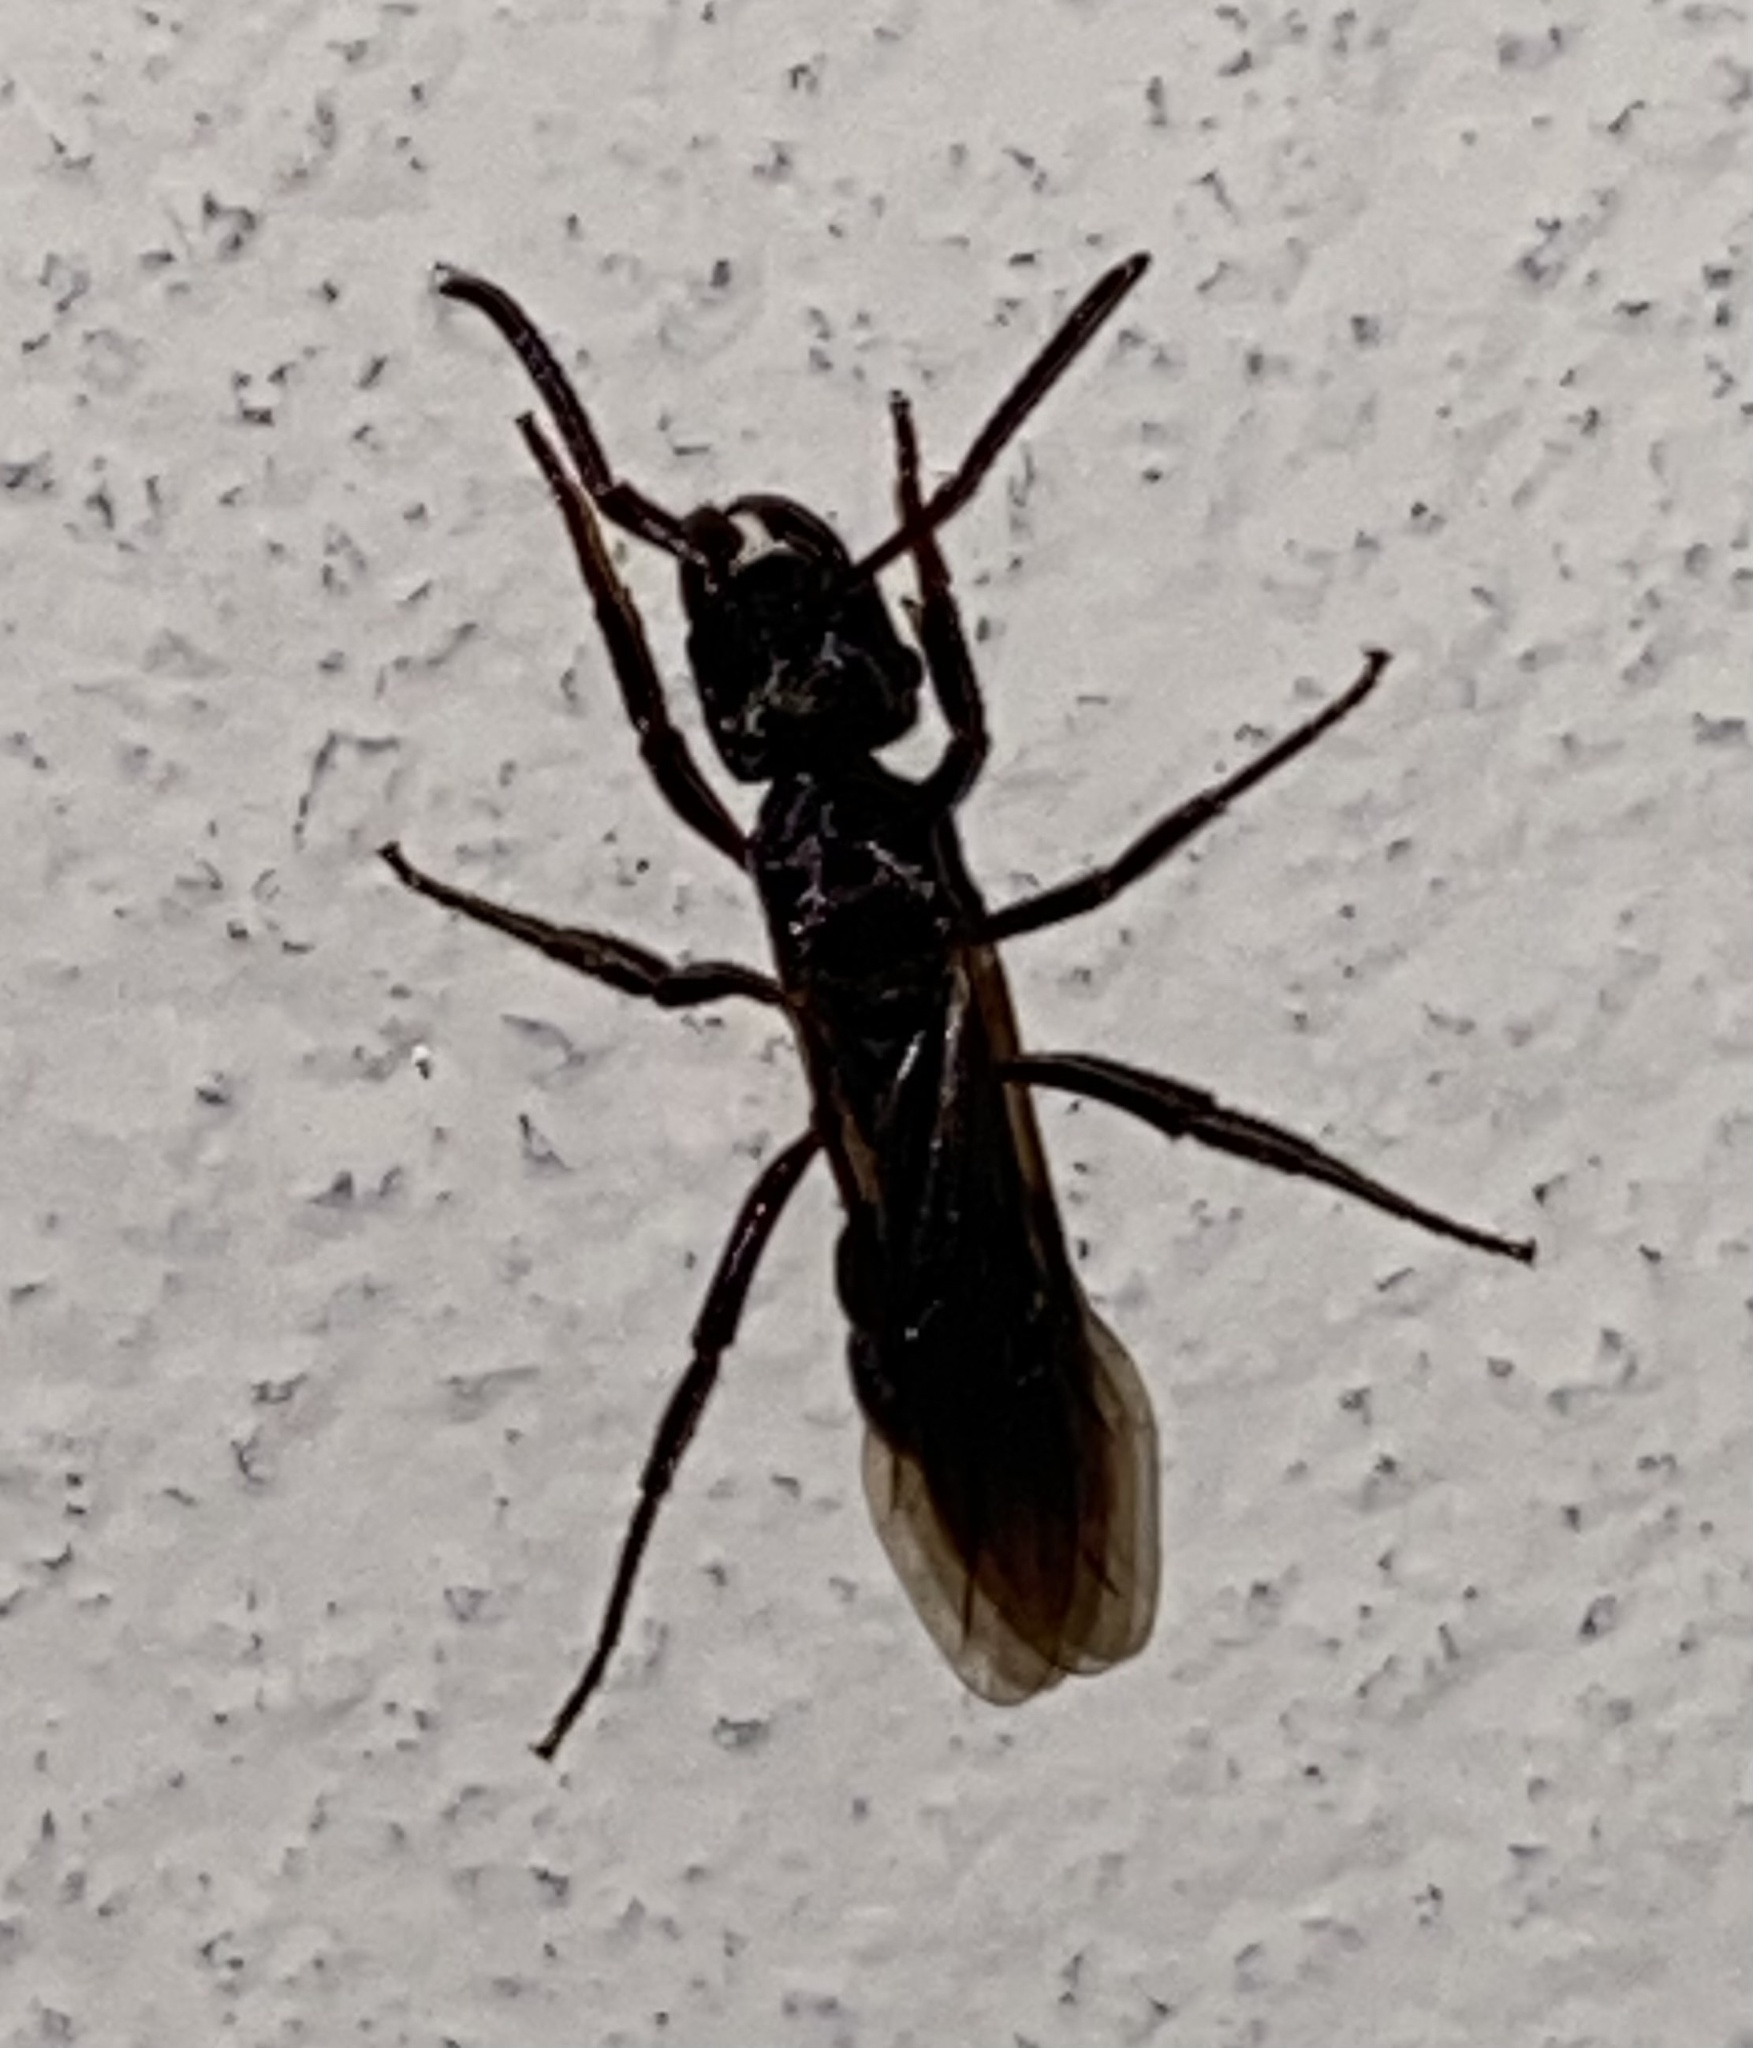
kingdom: Animalia
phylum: Arthropoda
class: Insecta
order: Hymenoptera
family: Formicidae
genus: Ectatomma
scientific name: Ectatomma brunneum
